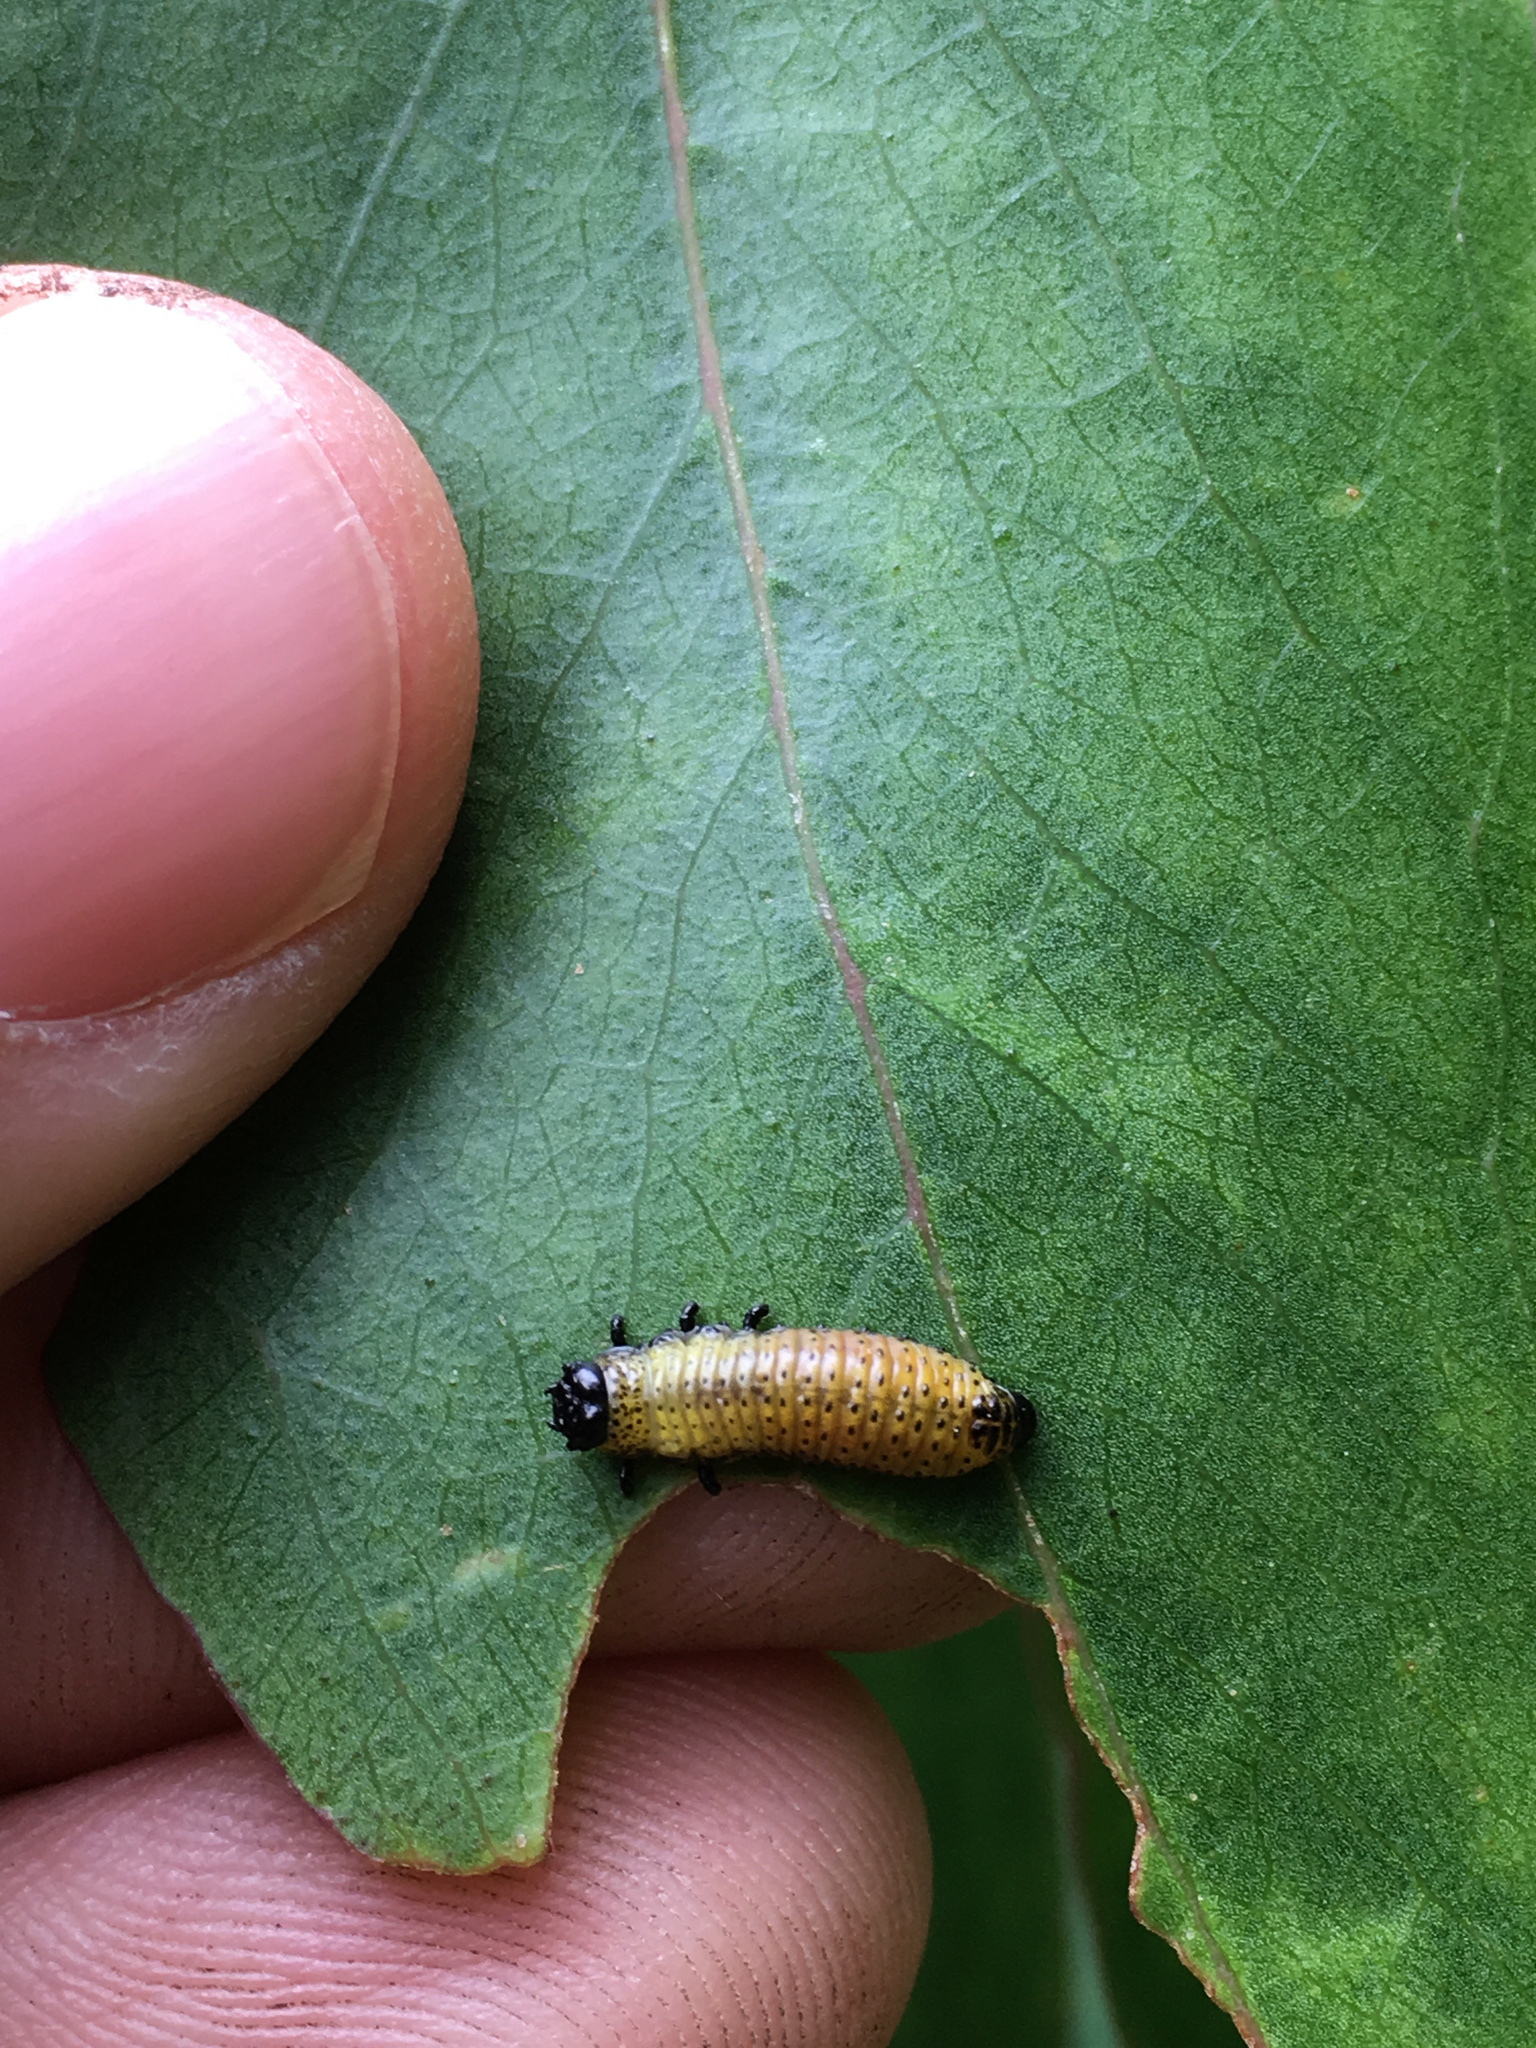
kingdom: Animalia
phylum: Arthropoda
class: Insecta
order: Coleoptera
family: Chrysomelidae
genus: Paropsis
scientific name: Paropsis charybdis
